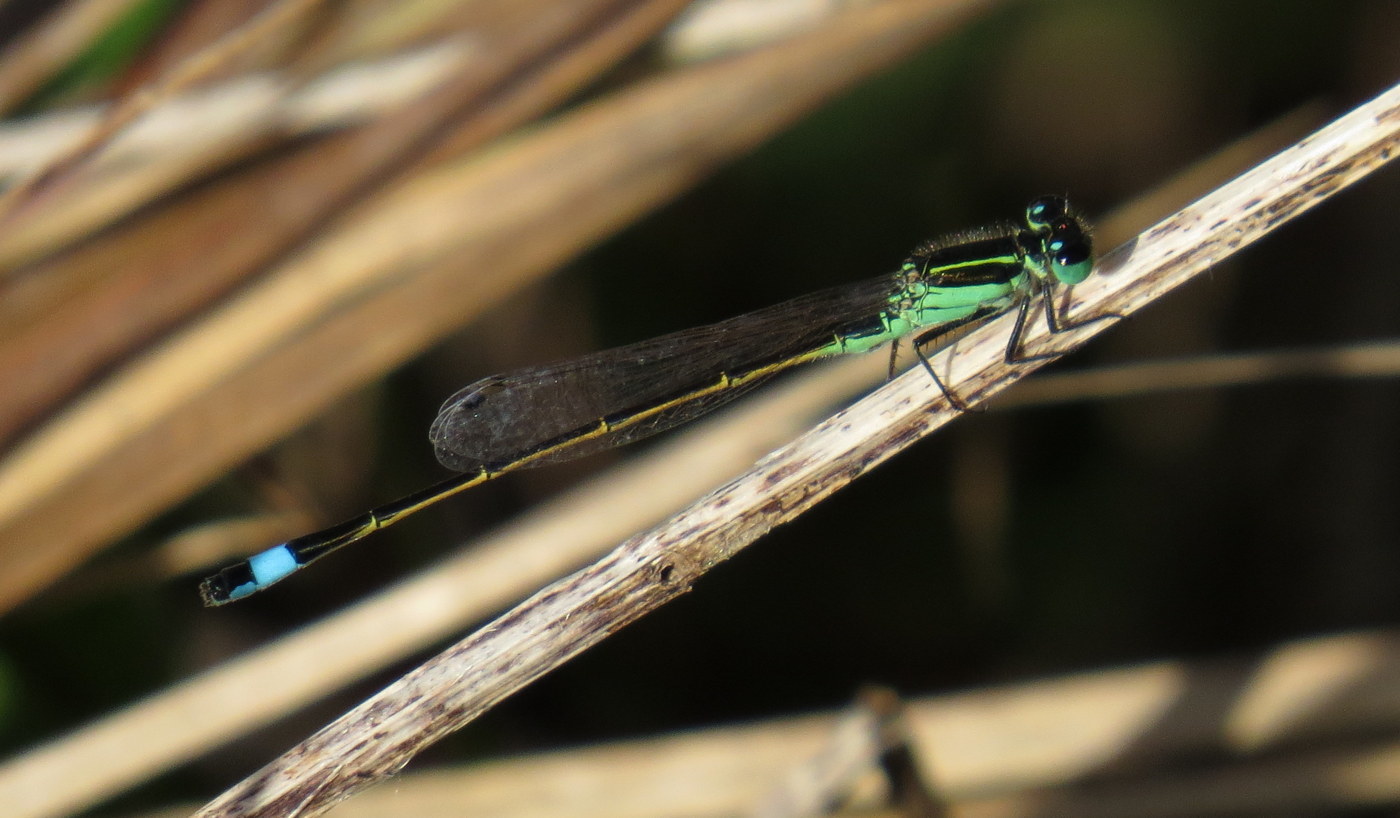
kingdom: Animalia
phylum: Arthropoda
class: Insecta
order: Odonata
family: Coenagrionidae
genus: Ischnura
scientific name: Ischnura ramburii
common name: Rambur's forktail
